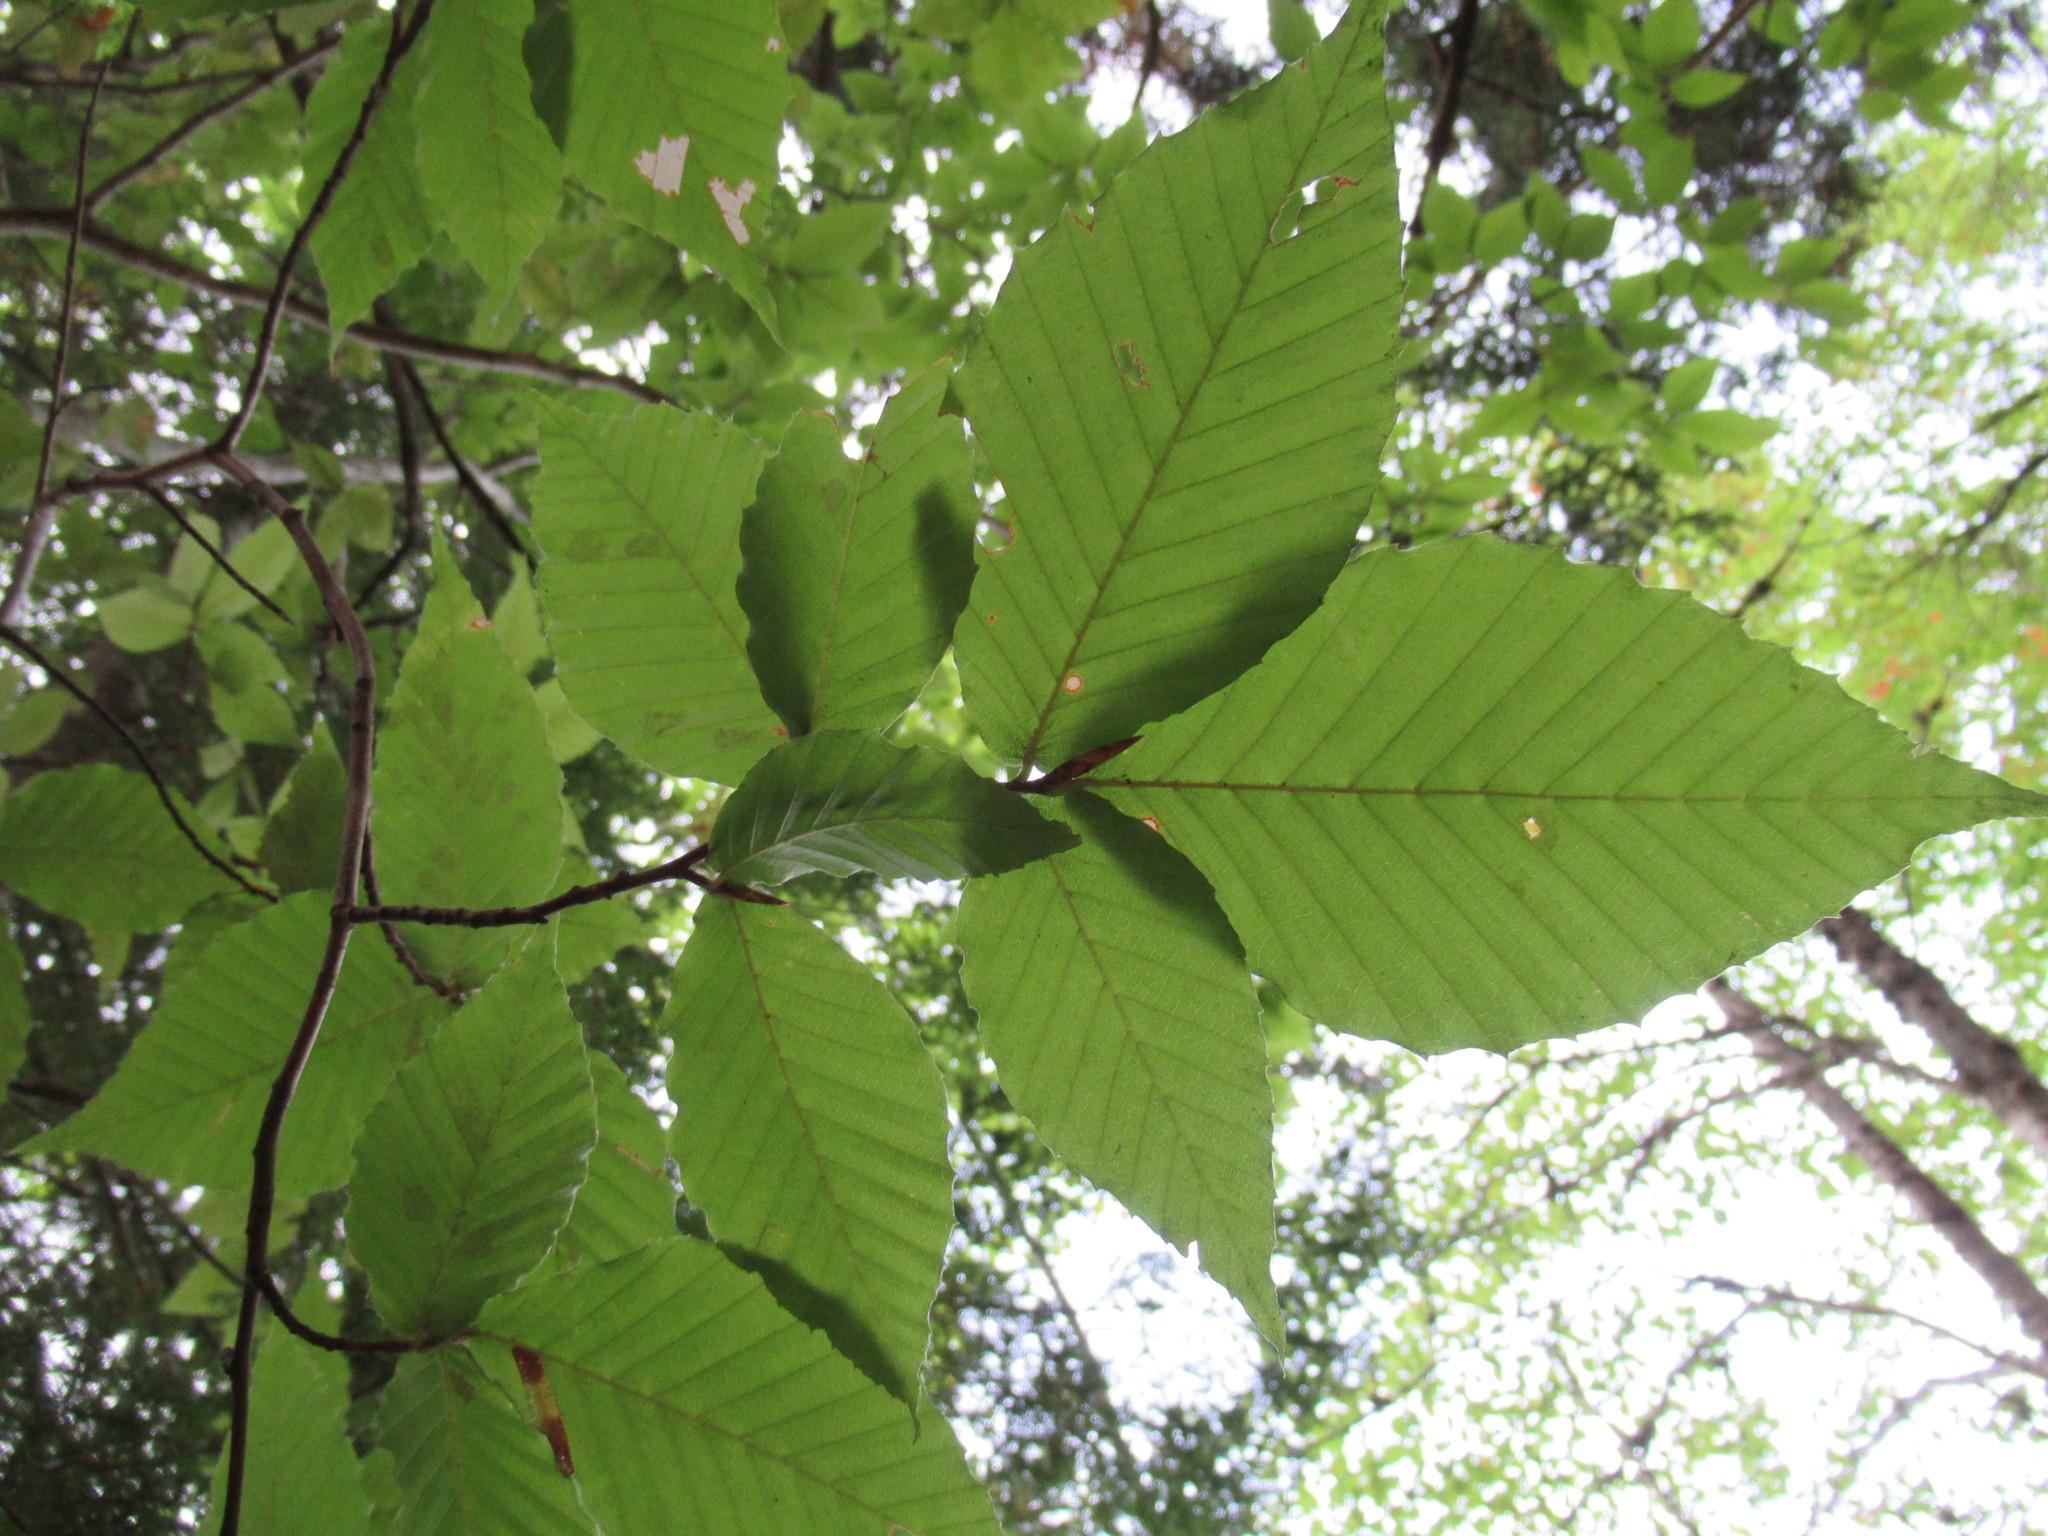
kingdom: Plantae
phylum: Tracheophyta
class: Magnoliopsida
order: Fagales
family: Fagaceae
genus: Fagus
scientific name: Fagus grandifolia
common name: American beech
